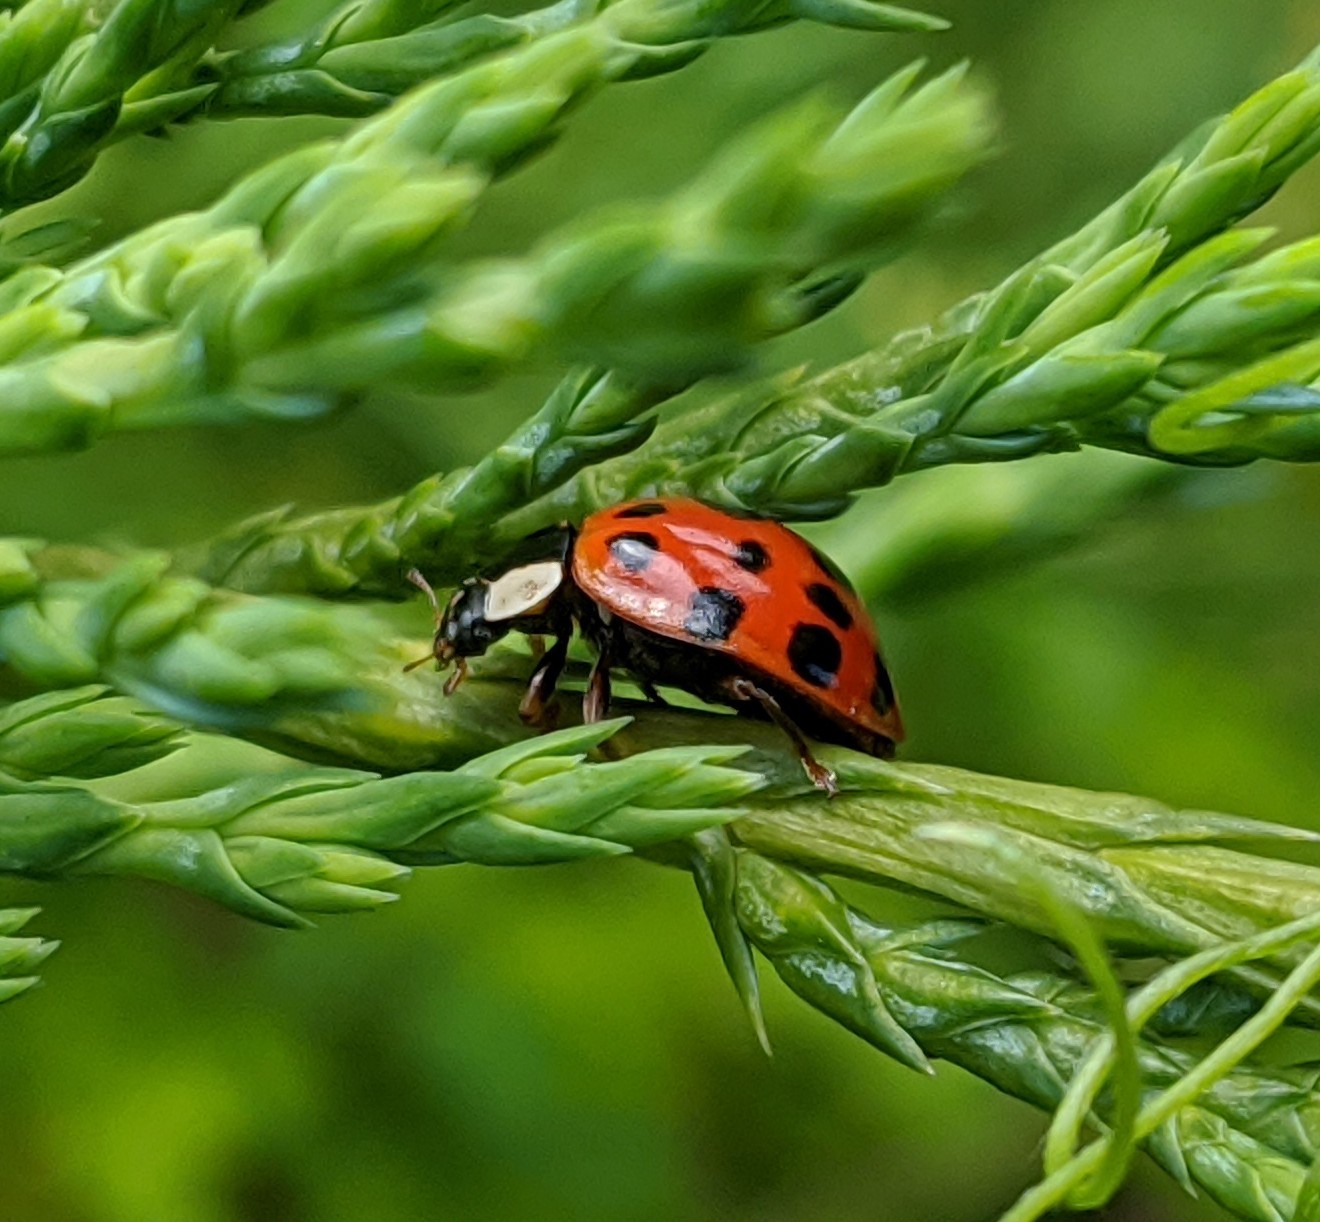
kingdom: Animalia
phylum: Arthropoda
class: Insecta
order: Coleoptera
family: Coccinellidae
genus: Harmonia
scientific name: Harmonia axyridis
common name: Harlequin ladybird
